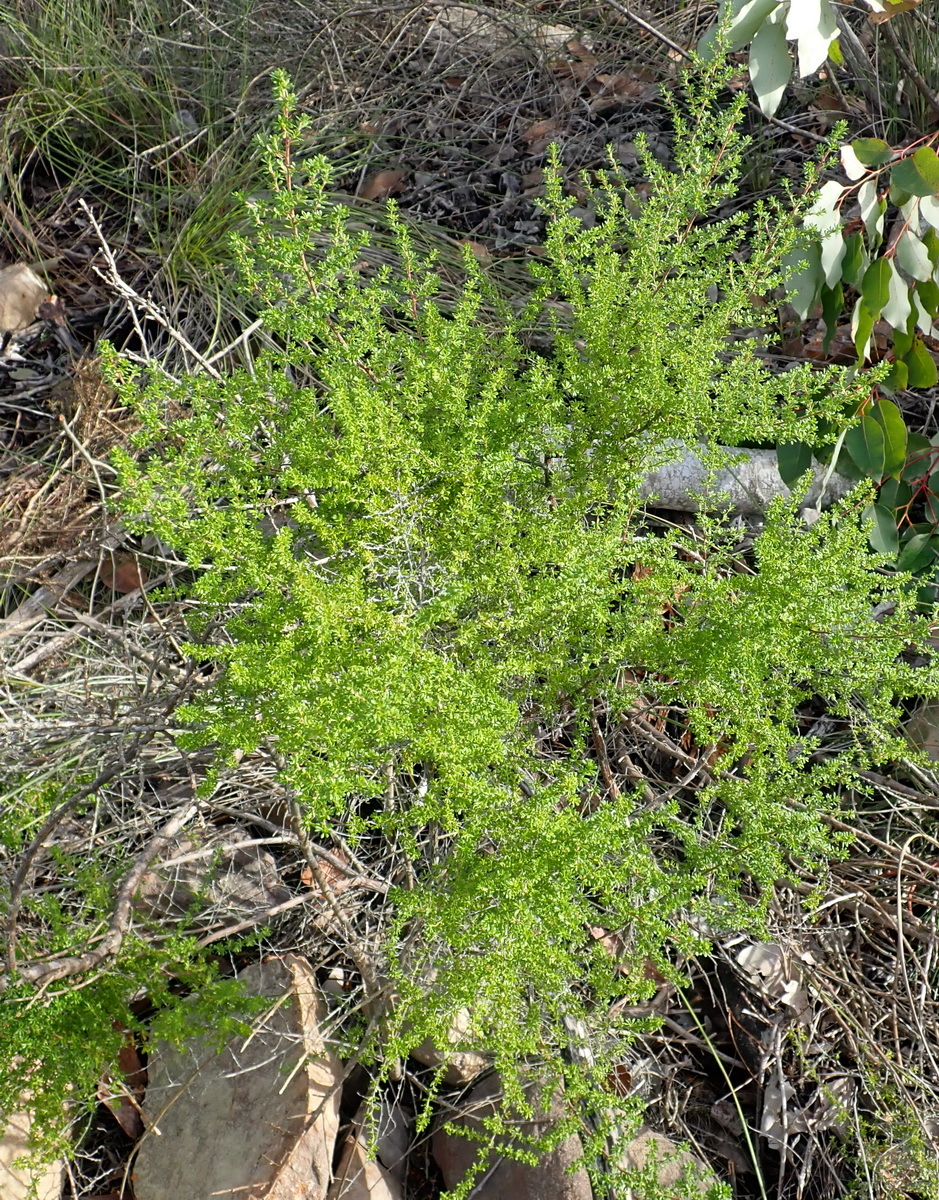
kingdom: Plantae
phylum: Tracheophyta
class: Magnoliopsida
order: Rosales
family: Rosaceae
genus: Cliffortia
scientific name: Cliffortia serpyllifolia
